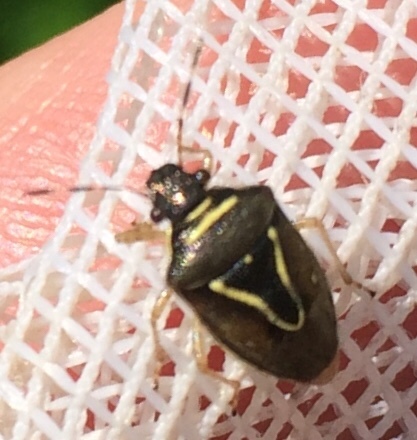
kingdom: Animalia
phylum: Arthropoda
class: Insecta
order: Hemiptera
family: Pentatomidae
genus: Mormidea
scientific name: Mormidea lugens
